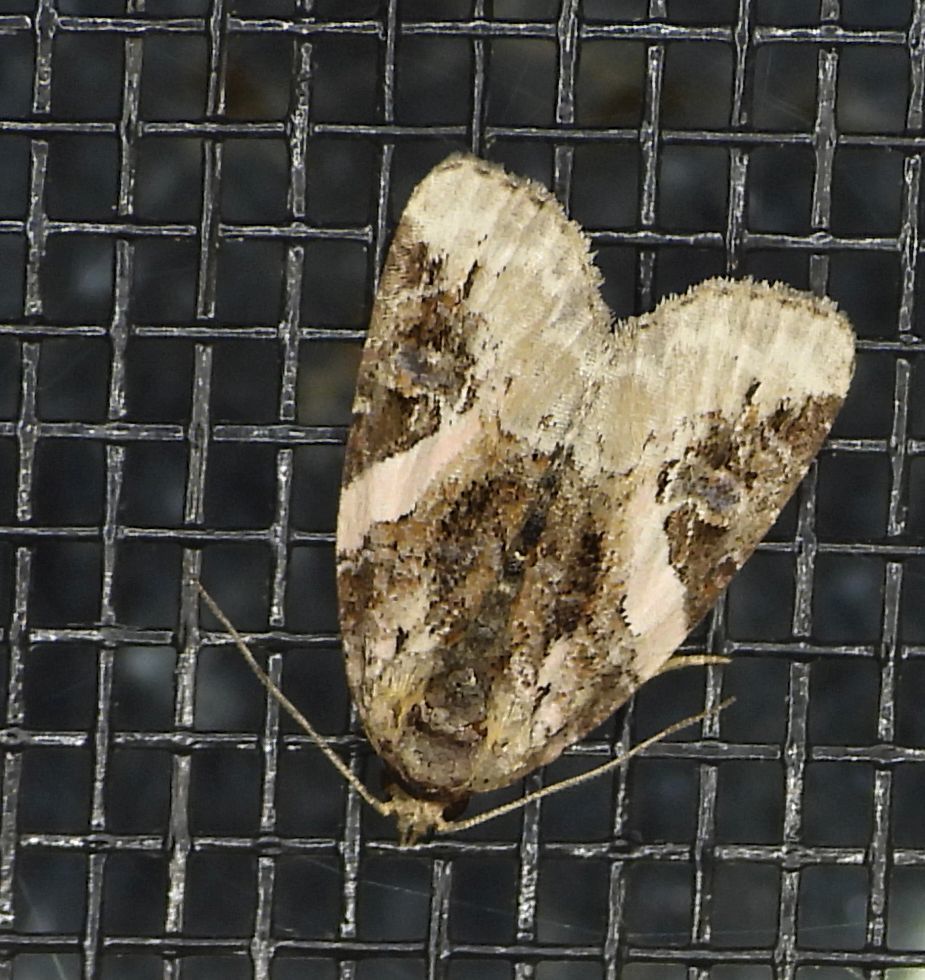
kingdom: Animalia
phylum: Arthropoda
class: Insecta
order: Lepidoptera
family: Noctuidae
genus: Pseudeustrotia
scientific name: Pseudeustrotia carneola
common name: Pink-barred lithacodia moth
